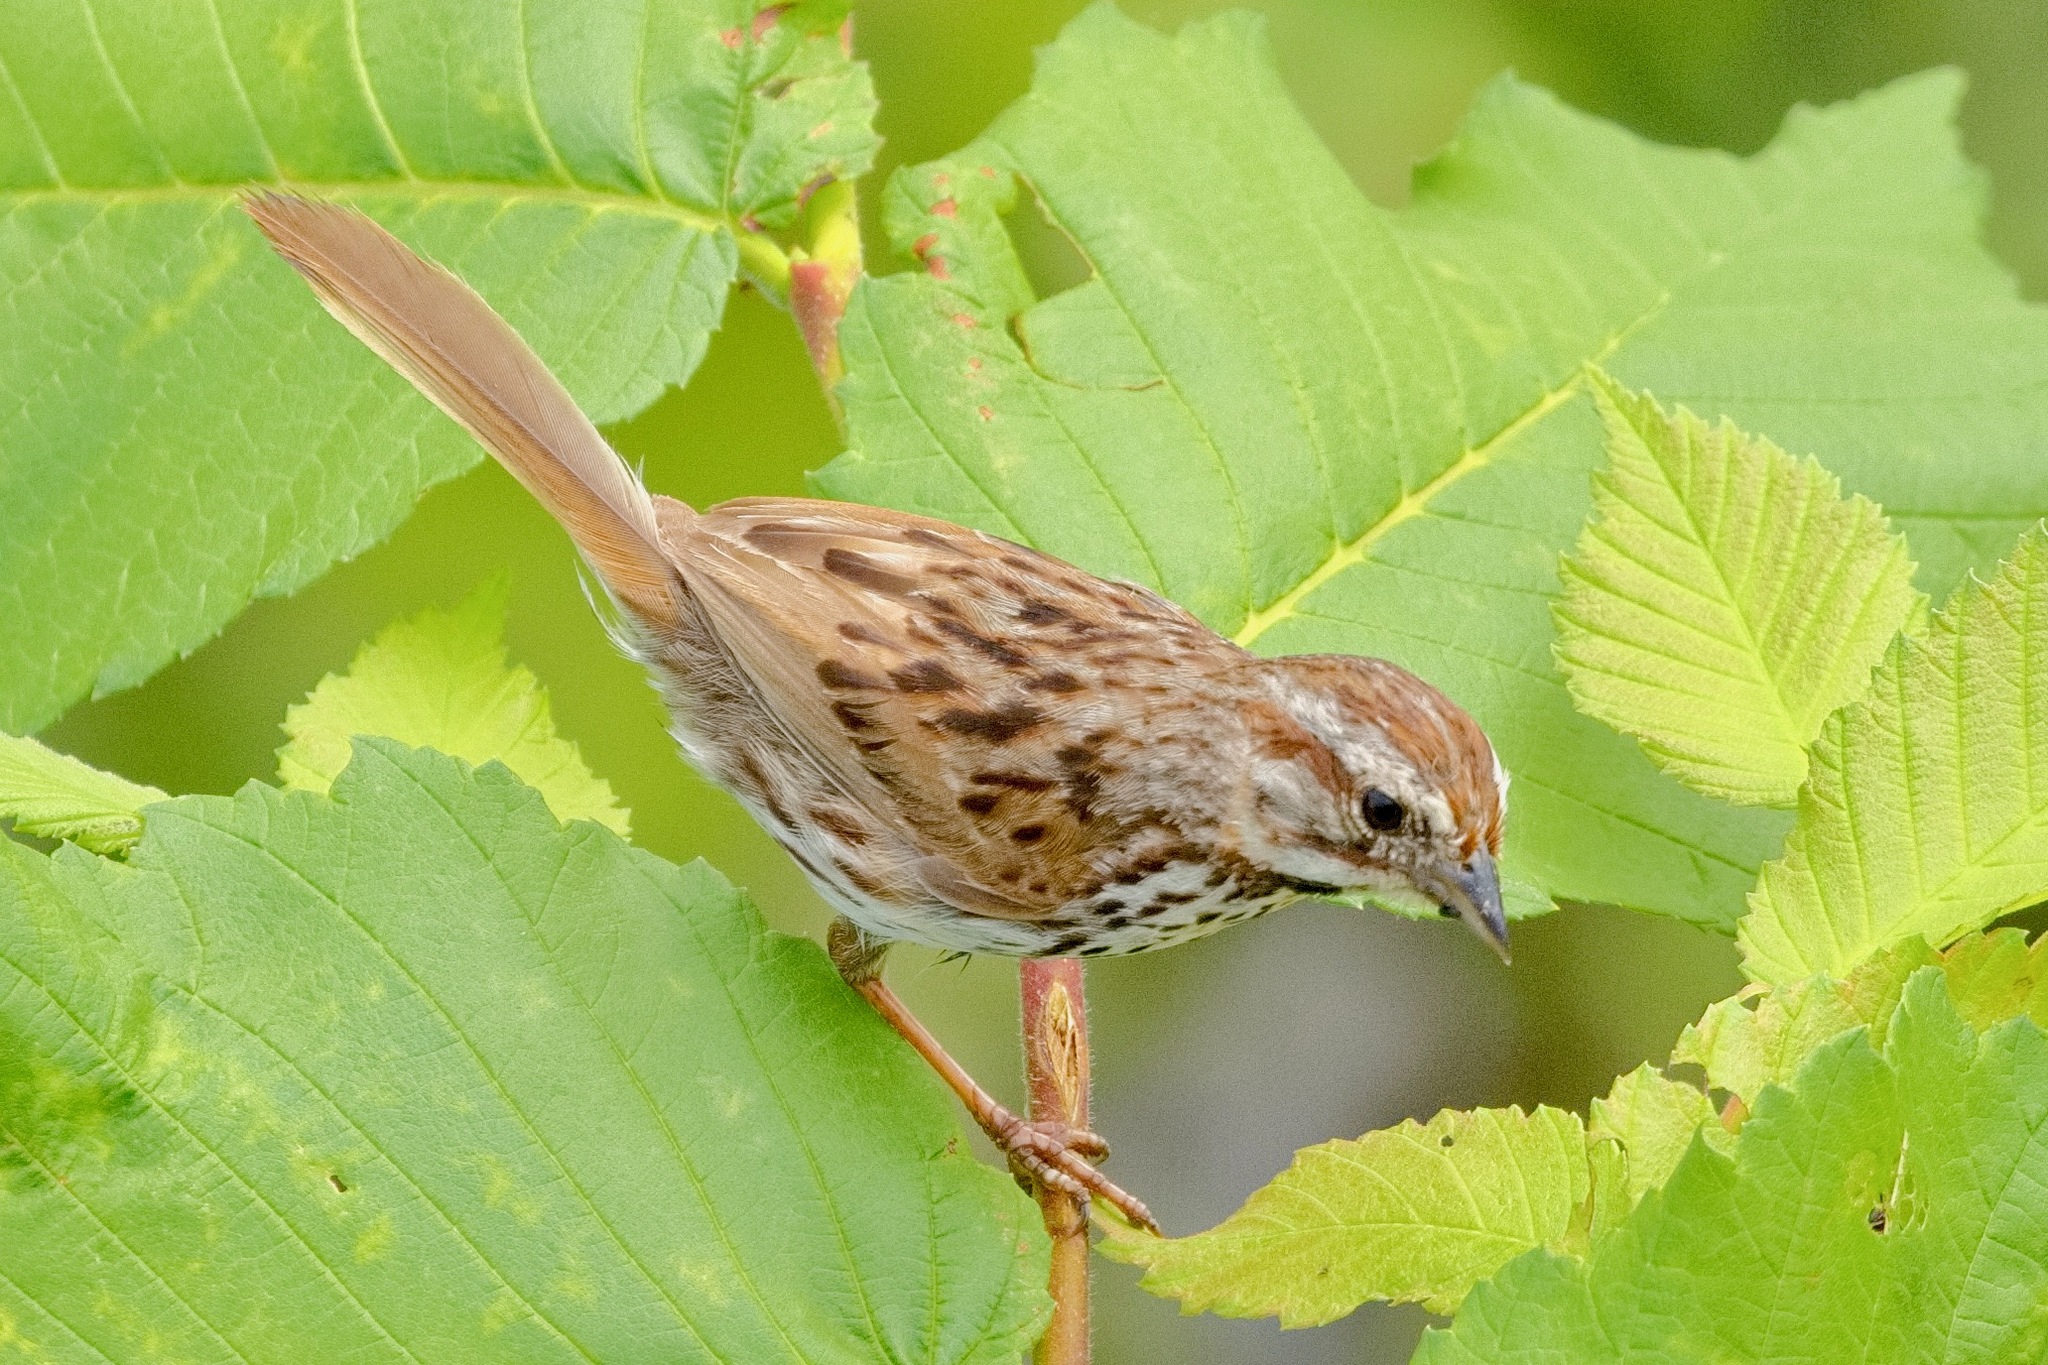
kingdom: Animalia
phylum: Chordata
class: Aves
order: Passeriformes
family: Passerellidae
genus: Melospiza
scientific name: Melospiza melodia
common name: Song sparrow
